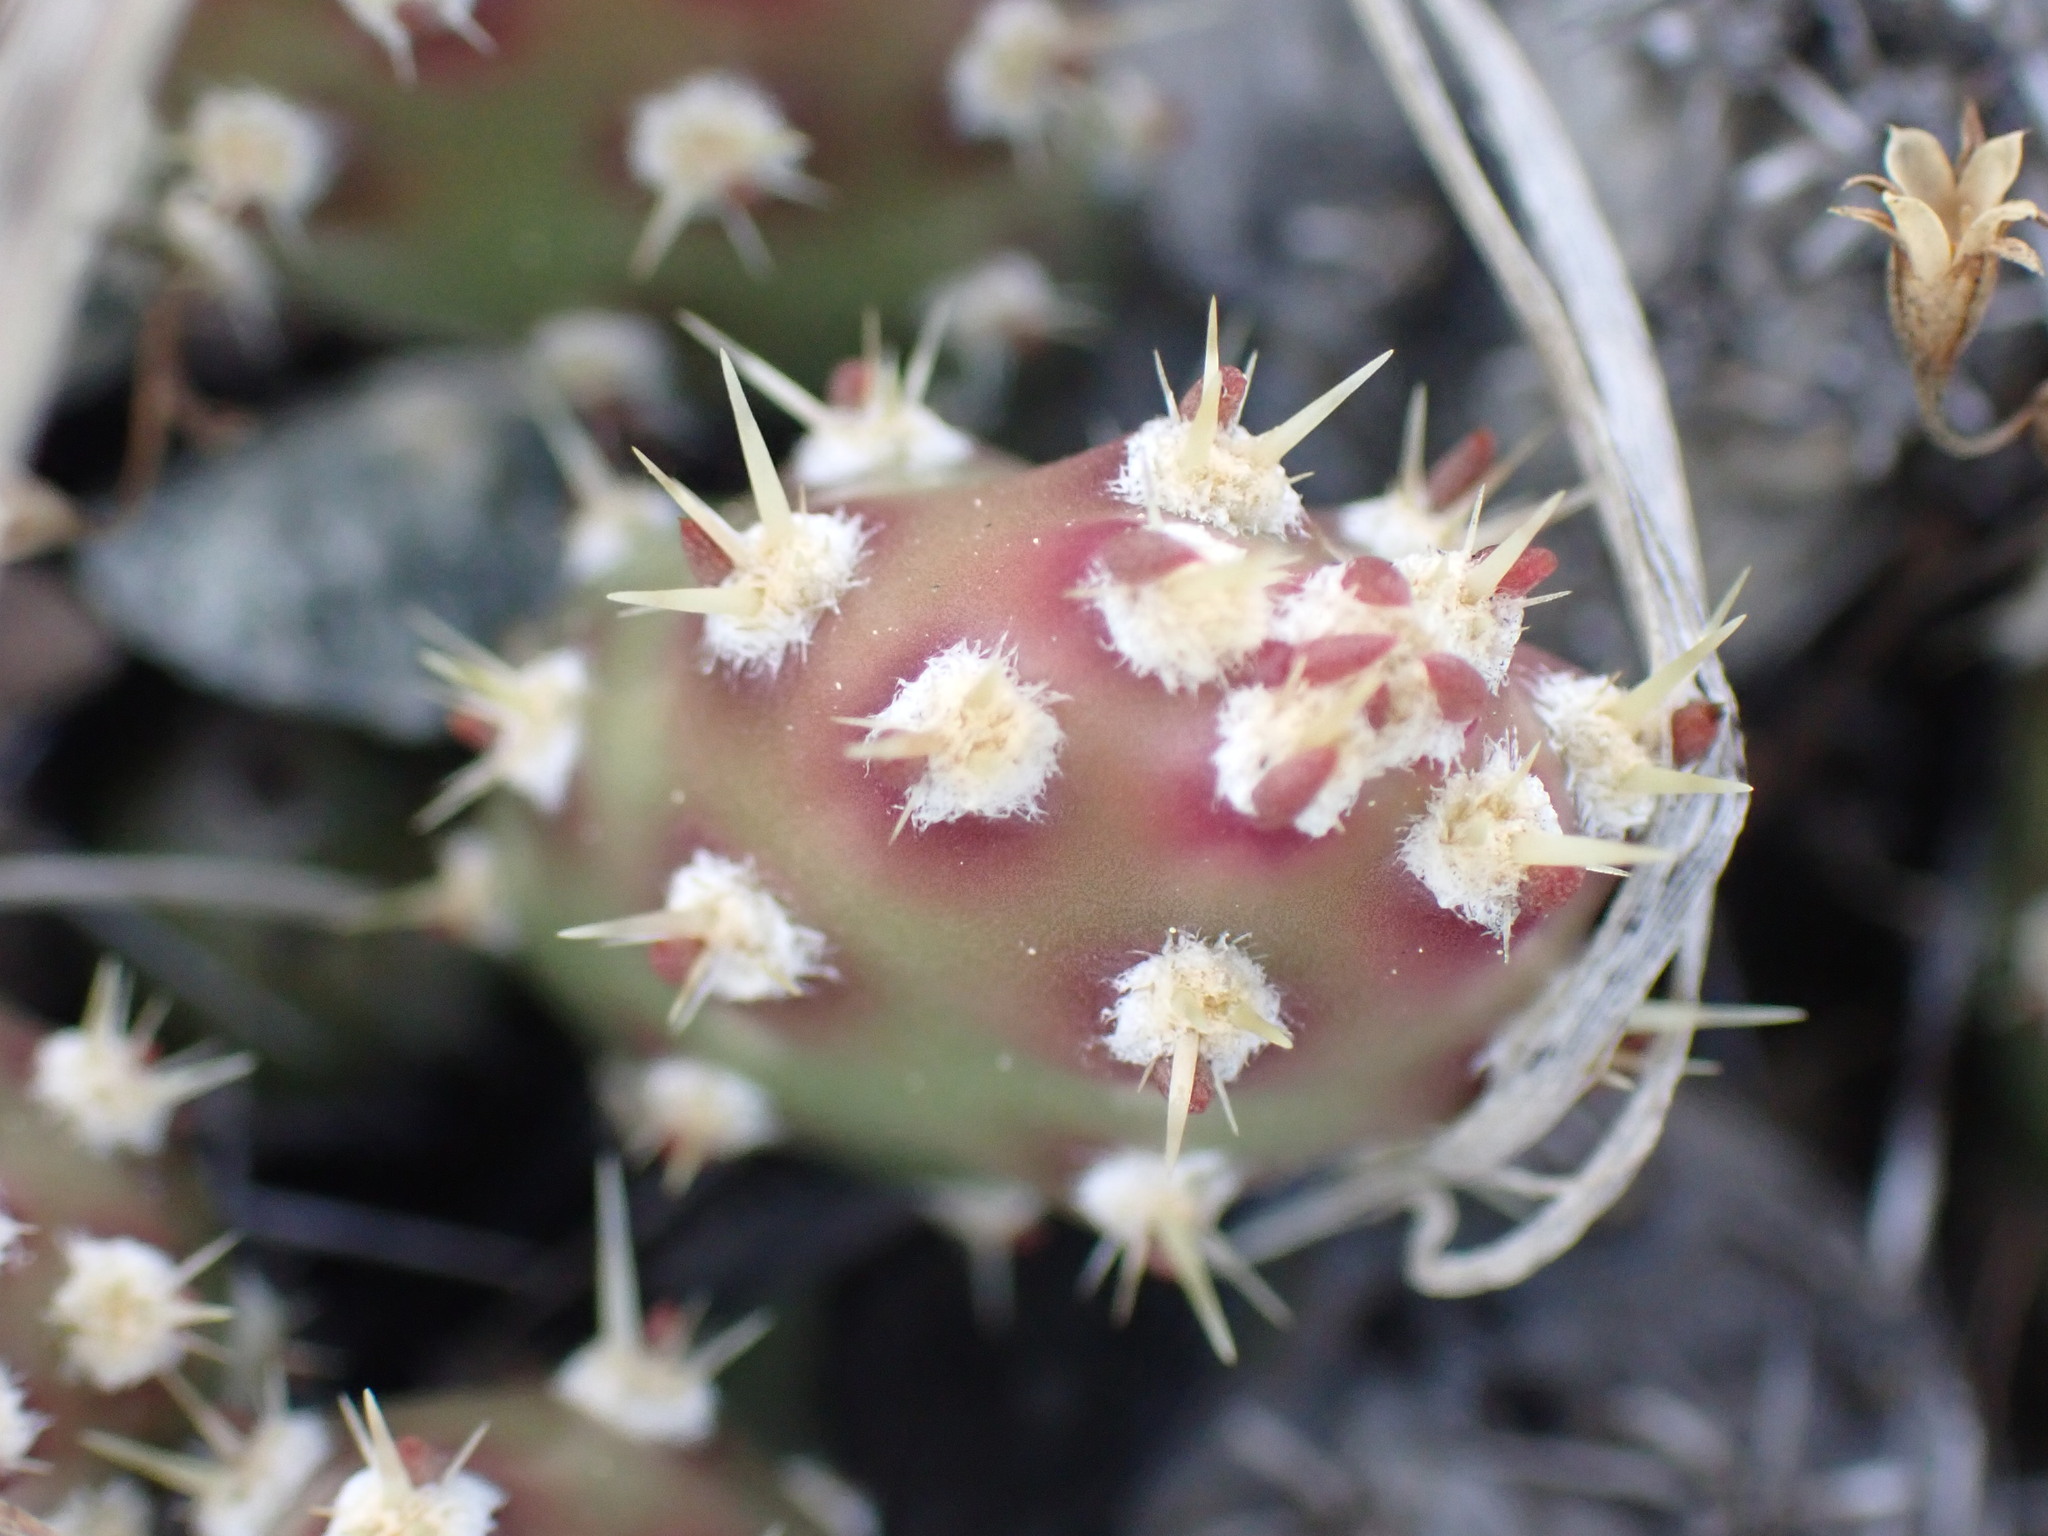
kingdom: Plantae
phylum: Tracheophyta
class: Magnoliopsida
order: Caryophyllales
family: Cactaceae
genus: Opuntia
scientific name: Opuntia fragilis
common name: Brittle cactus
